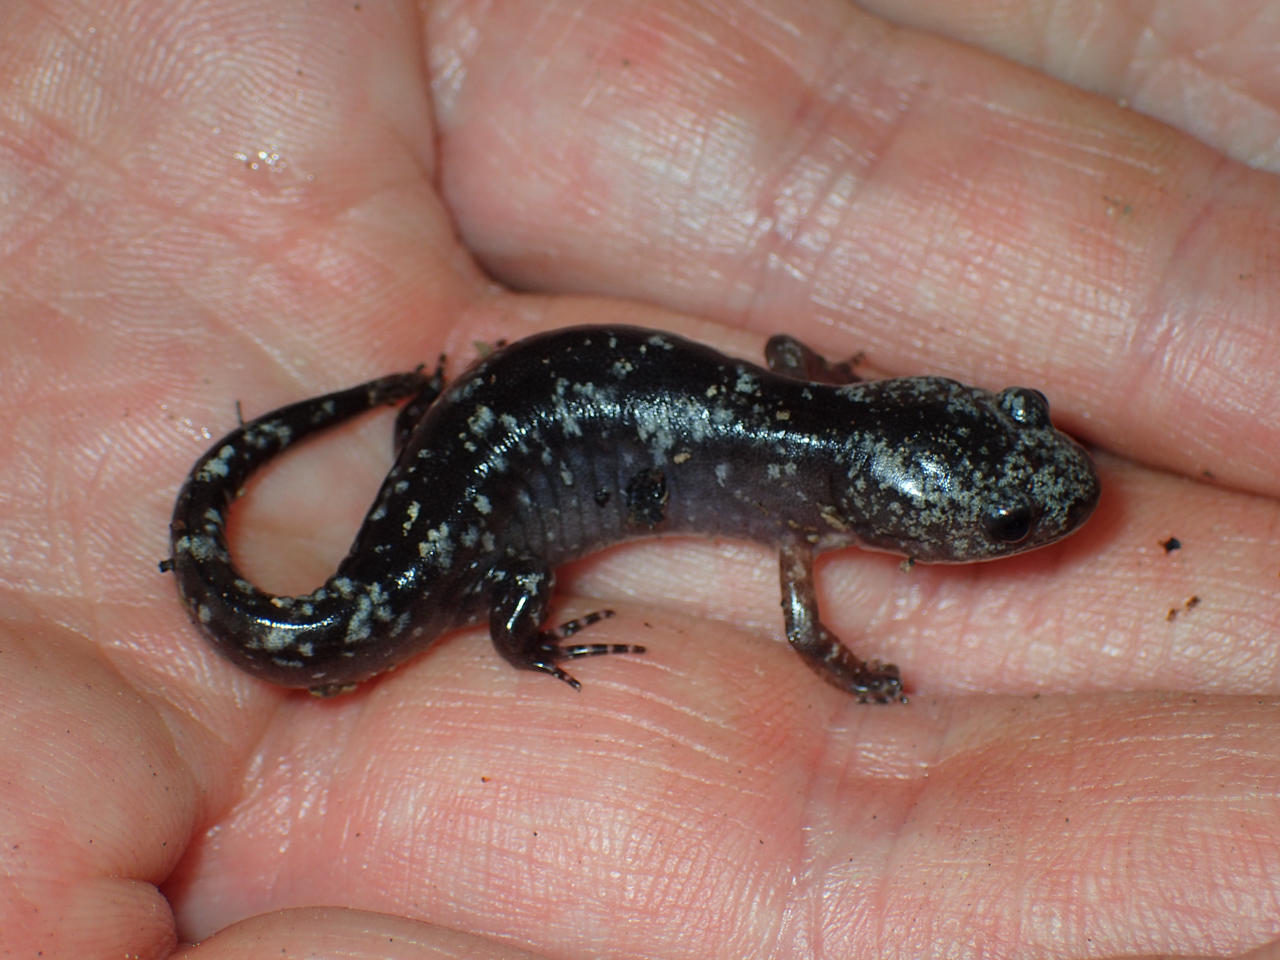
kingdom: Animalia
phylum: Chordata
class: Amphibia
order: Caudata
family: Ambystomatidae
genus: Ambystoma
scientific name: Ambystoma opacum
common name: Marbled salamander
